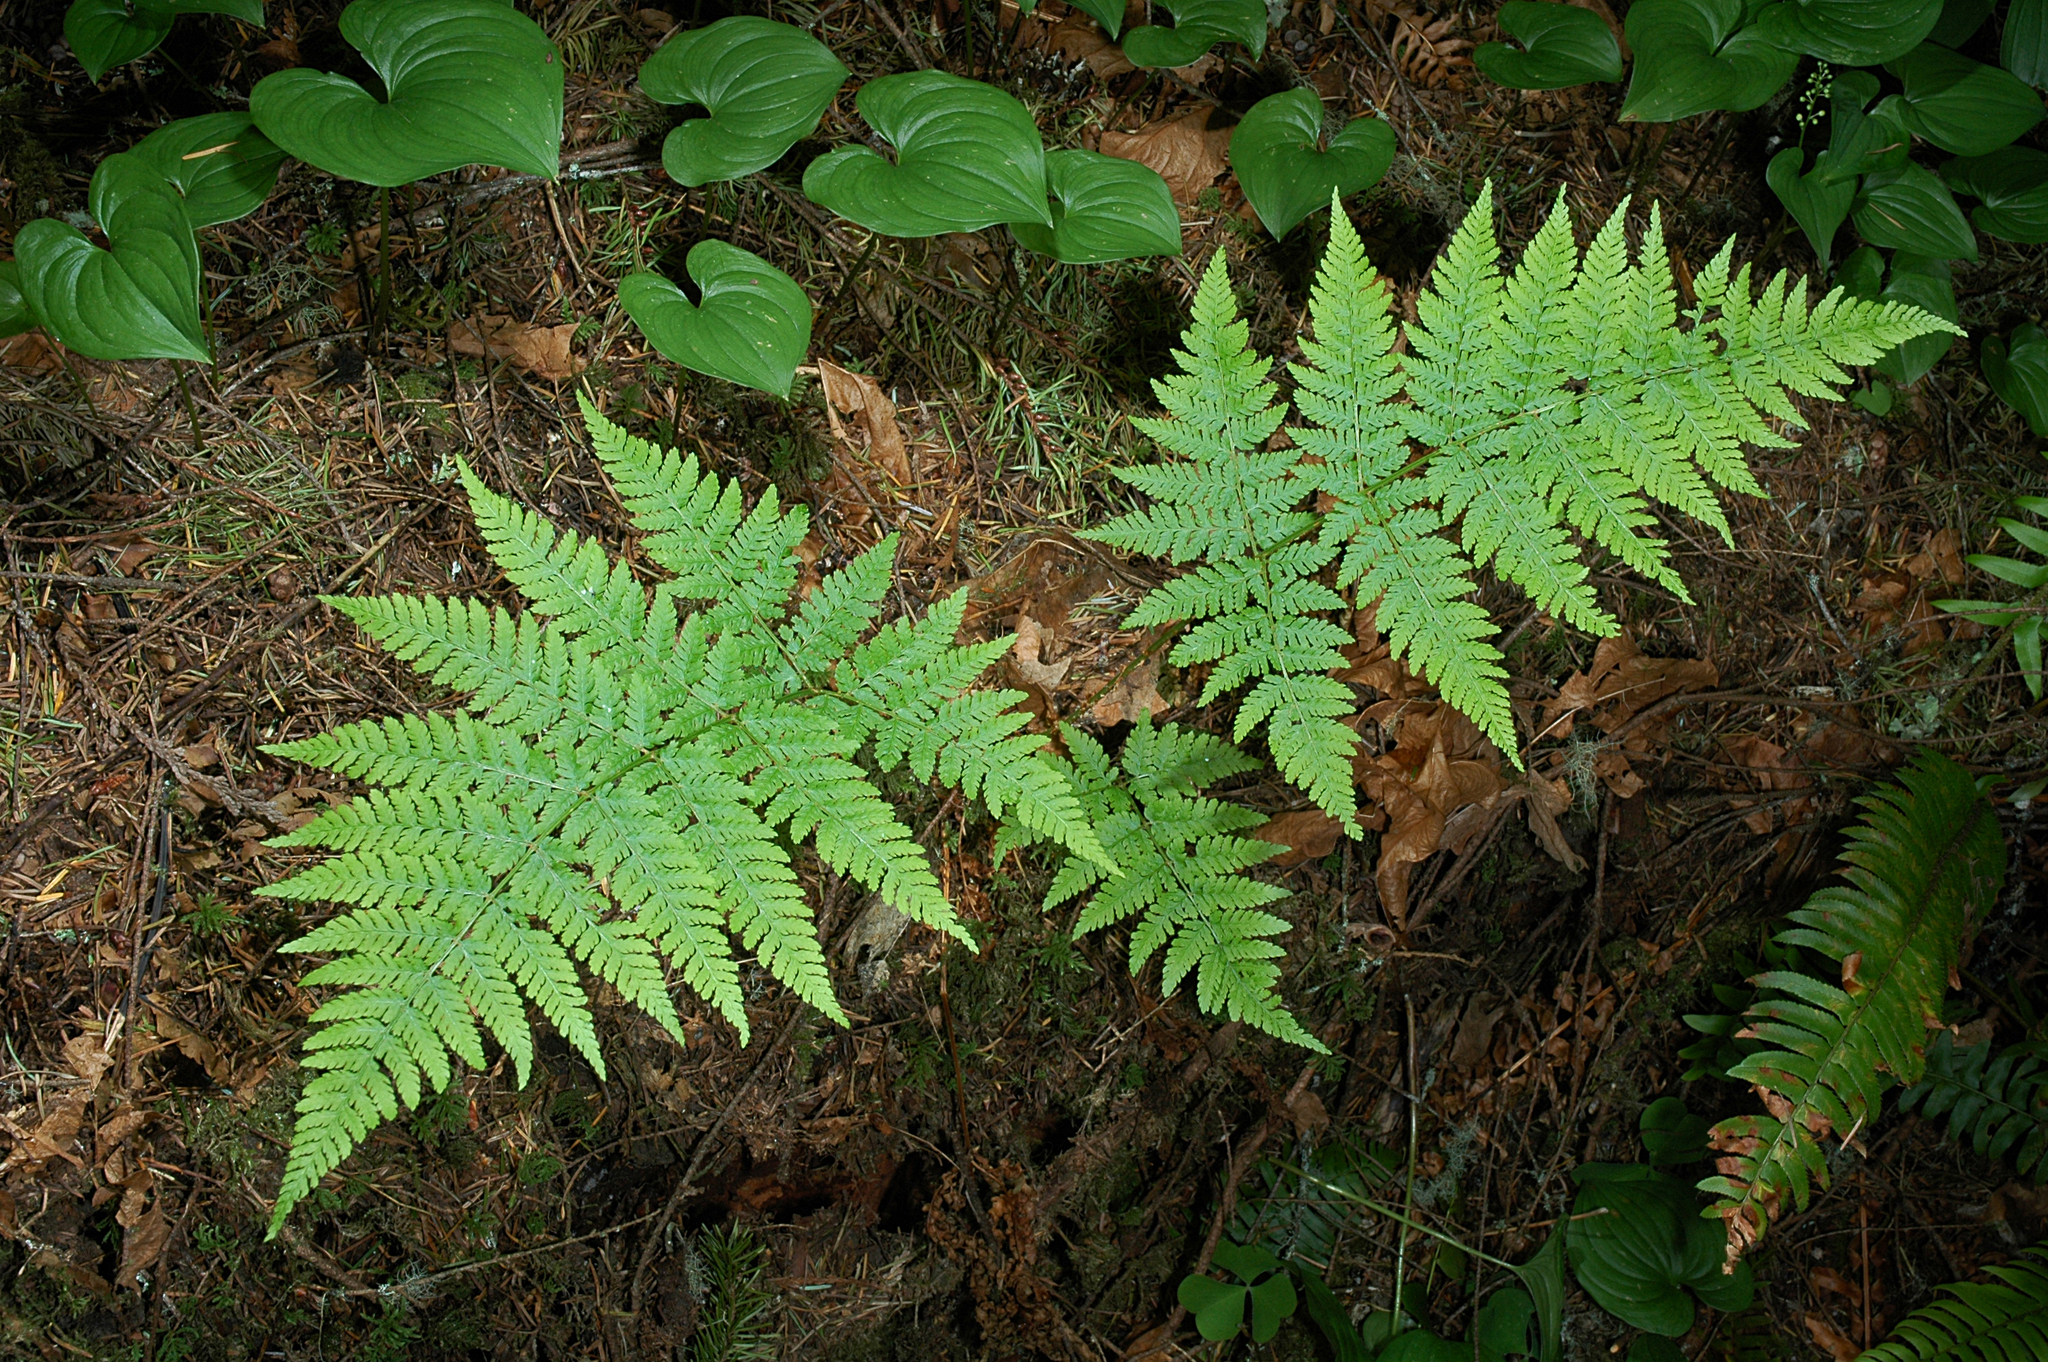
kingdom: Plantae
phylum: Tracheophyta
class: Polypodiopsida
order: Polypodiales
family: Dryopteridaceae
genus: Dryopteris
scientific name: Dryopteris expansa
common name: Northern buckler fern
